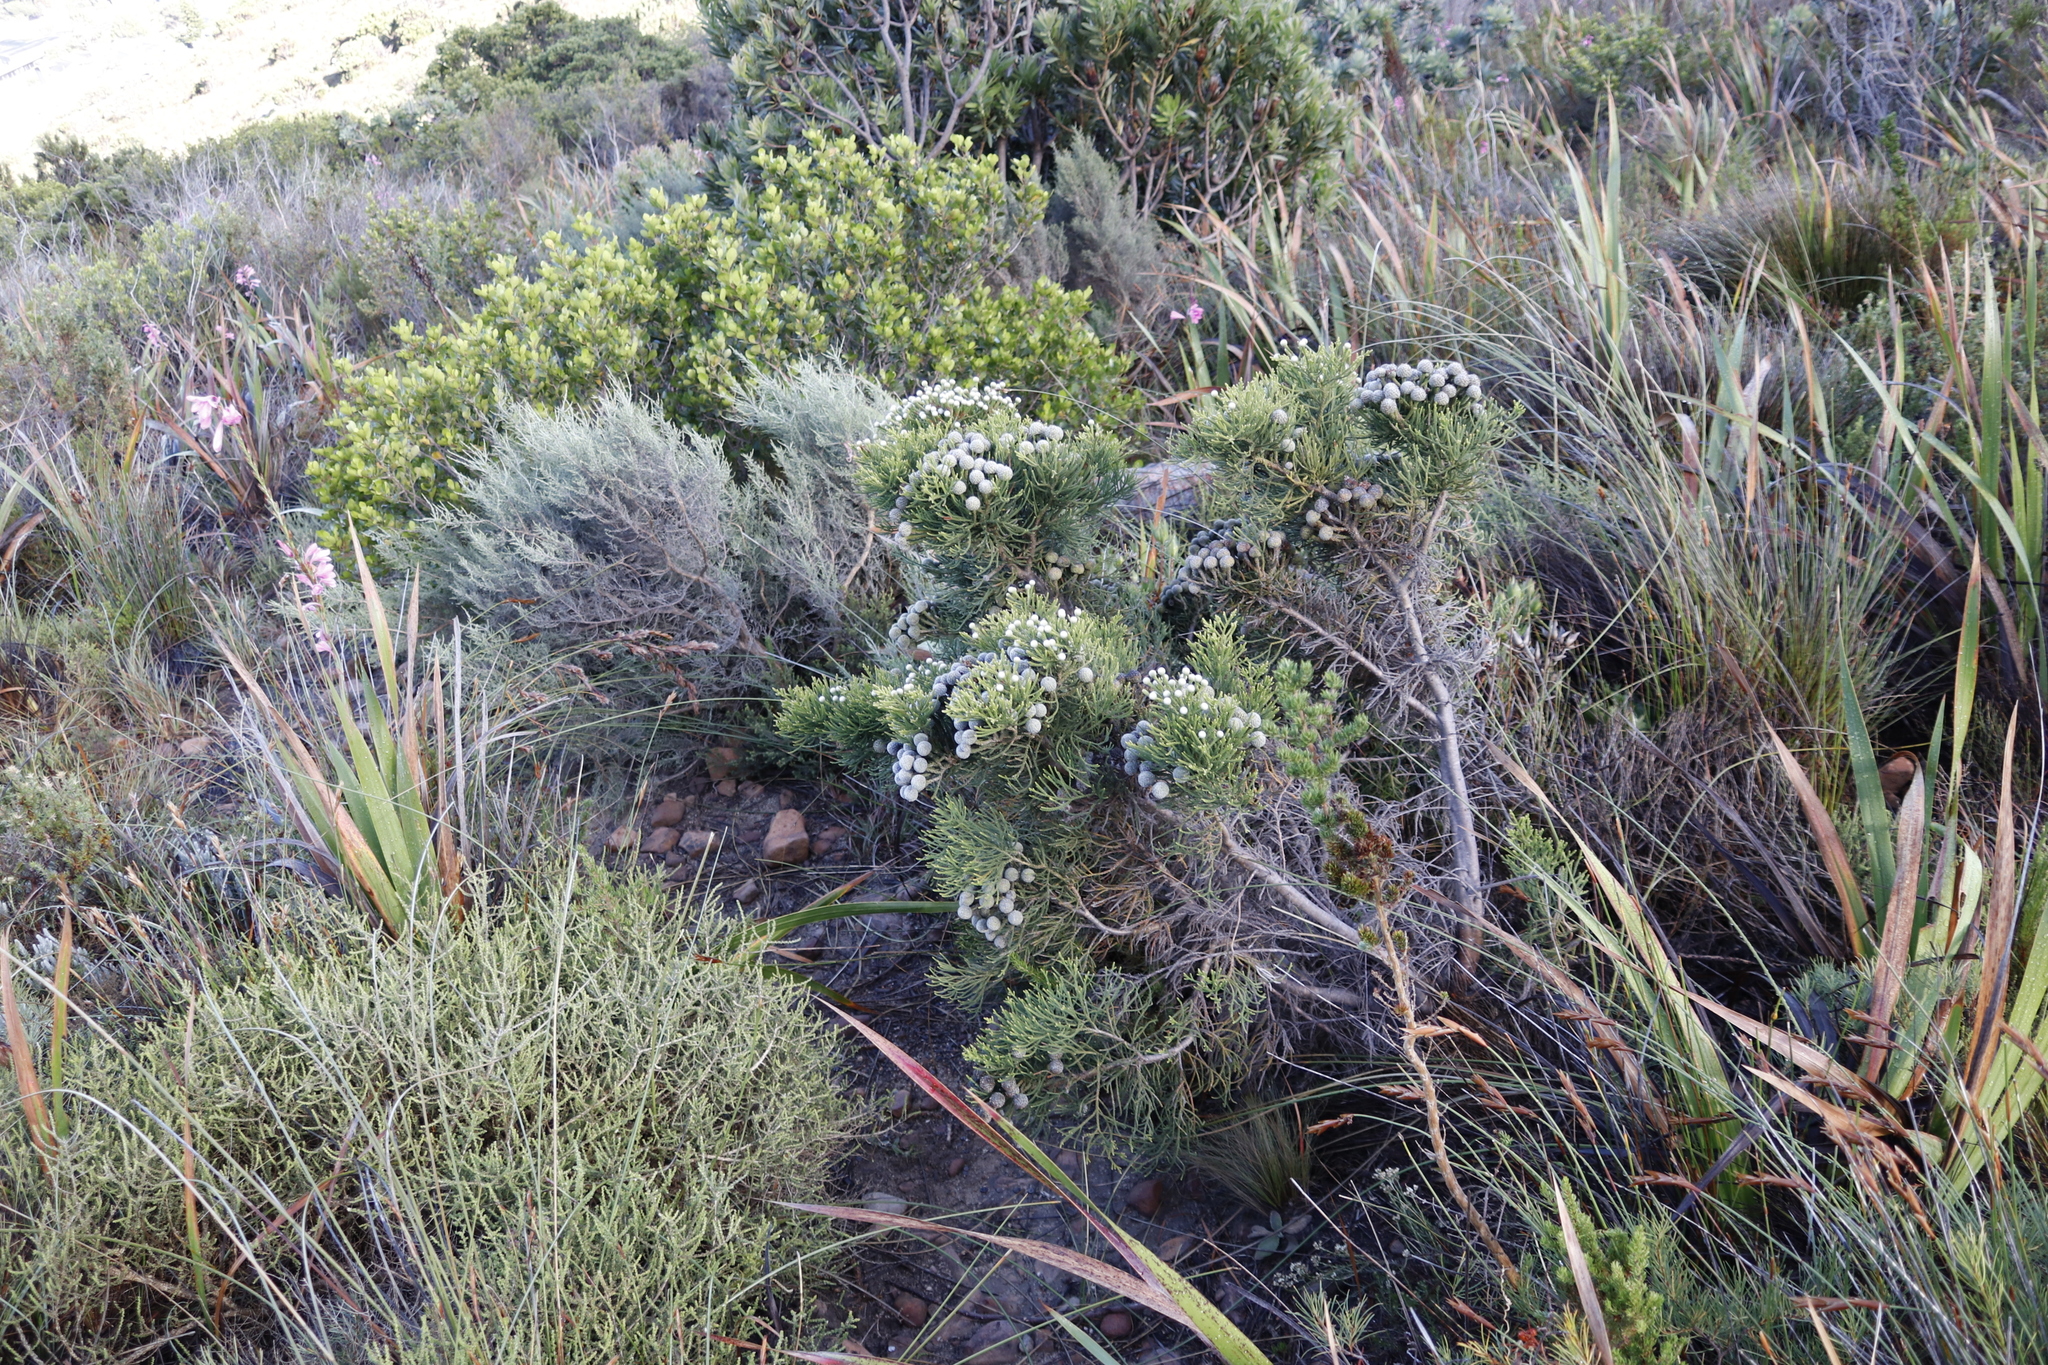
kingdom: Plantae
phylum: Tracheophyta
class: Magnoliopsida
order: Bruniales
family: Bruniaceae
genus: Brunia
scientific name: Brunia noduliflora
